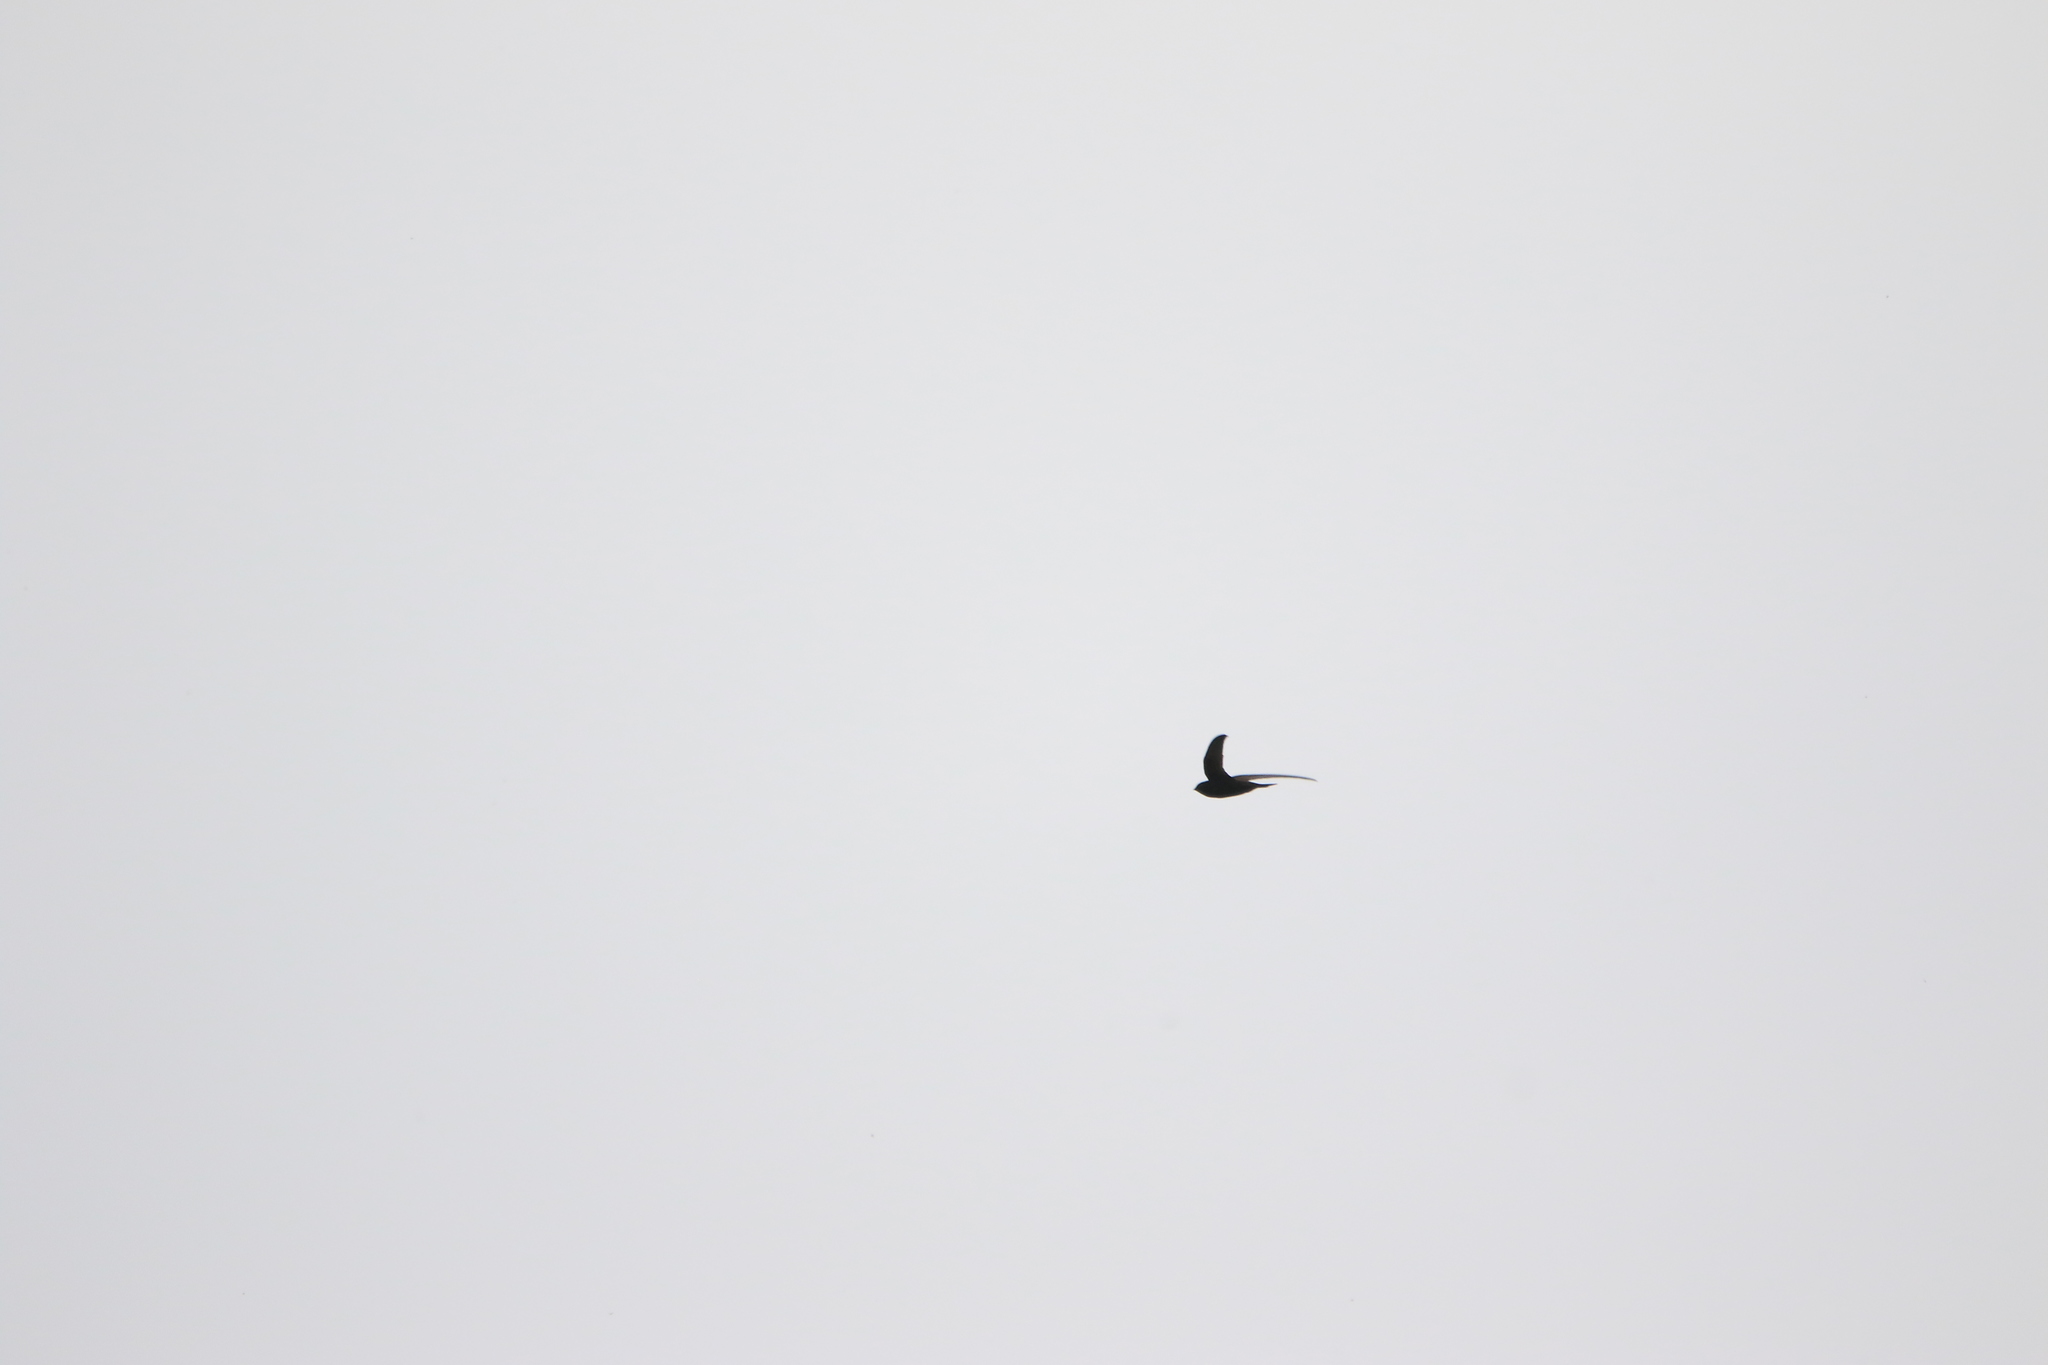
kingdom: Animalia
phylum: Chordata
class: Aves
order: Apodiformes
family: Apodidae
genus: Apus
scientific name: Apus apus
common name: Common swift
